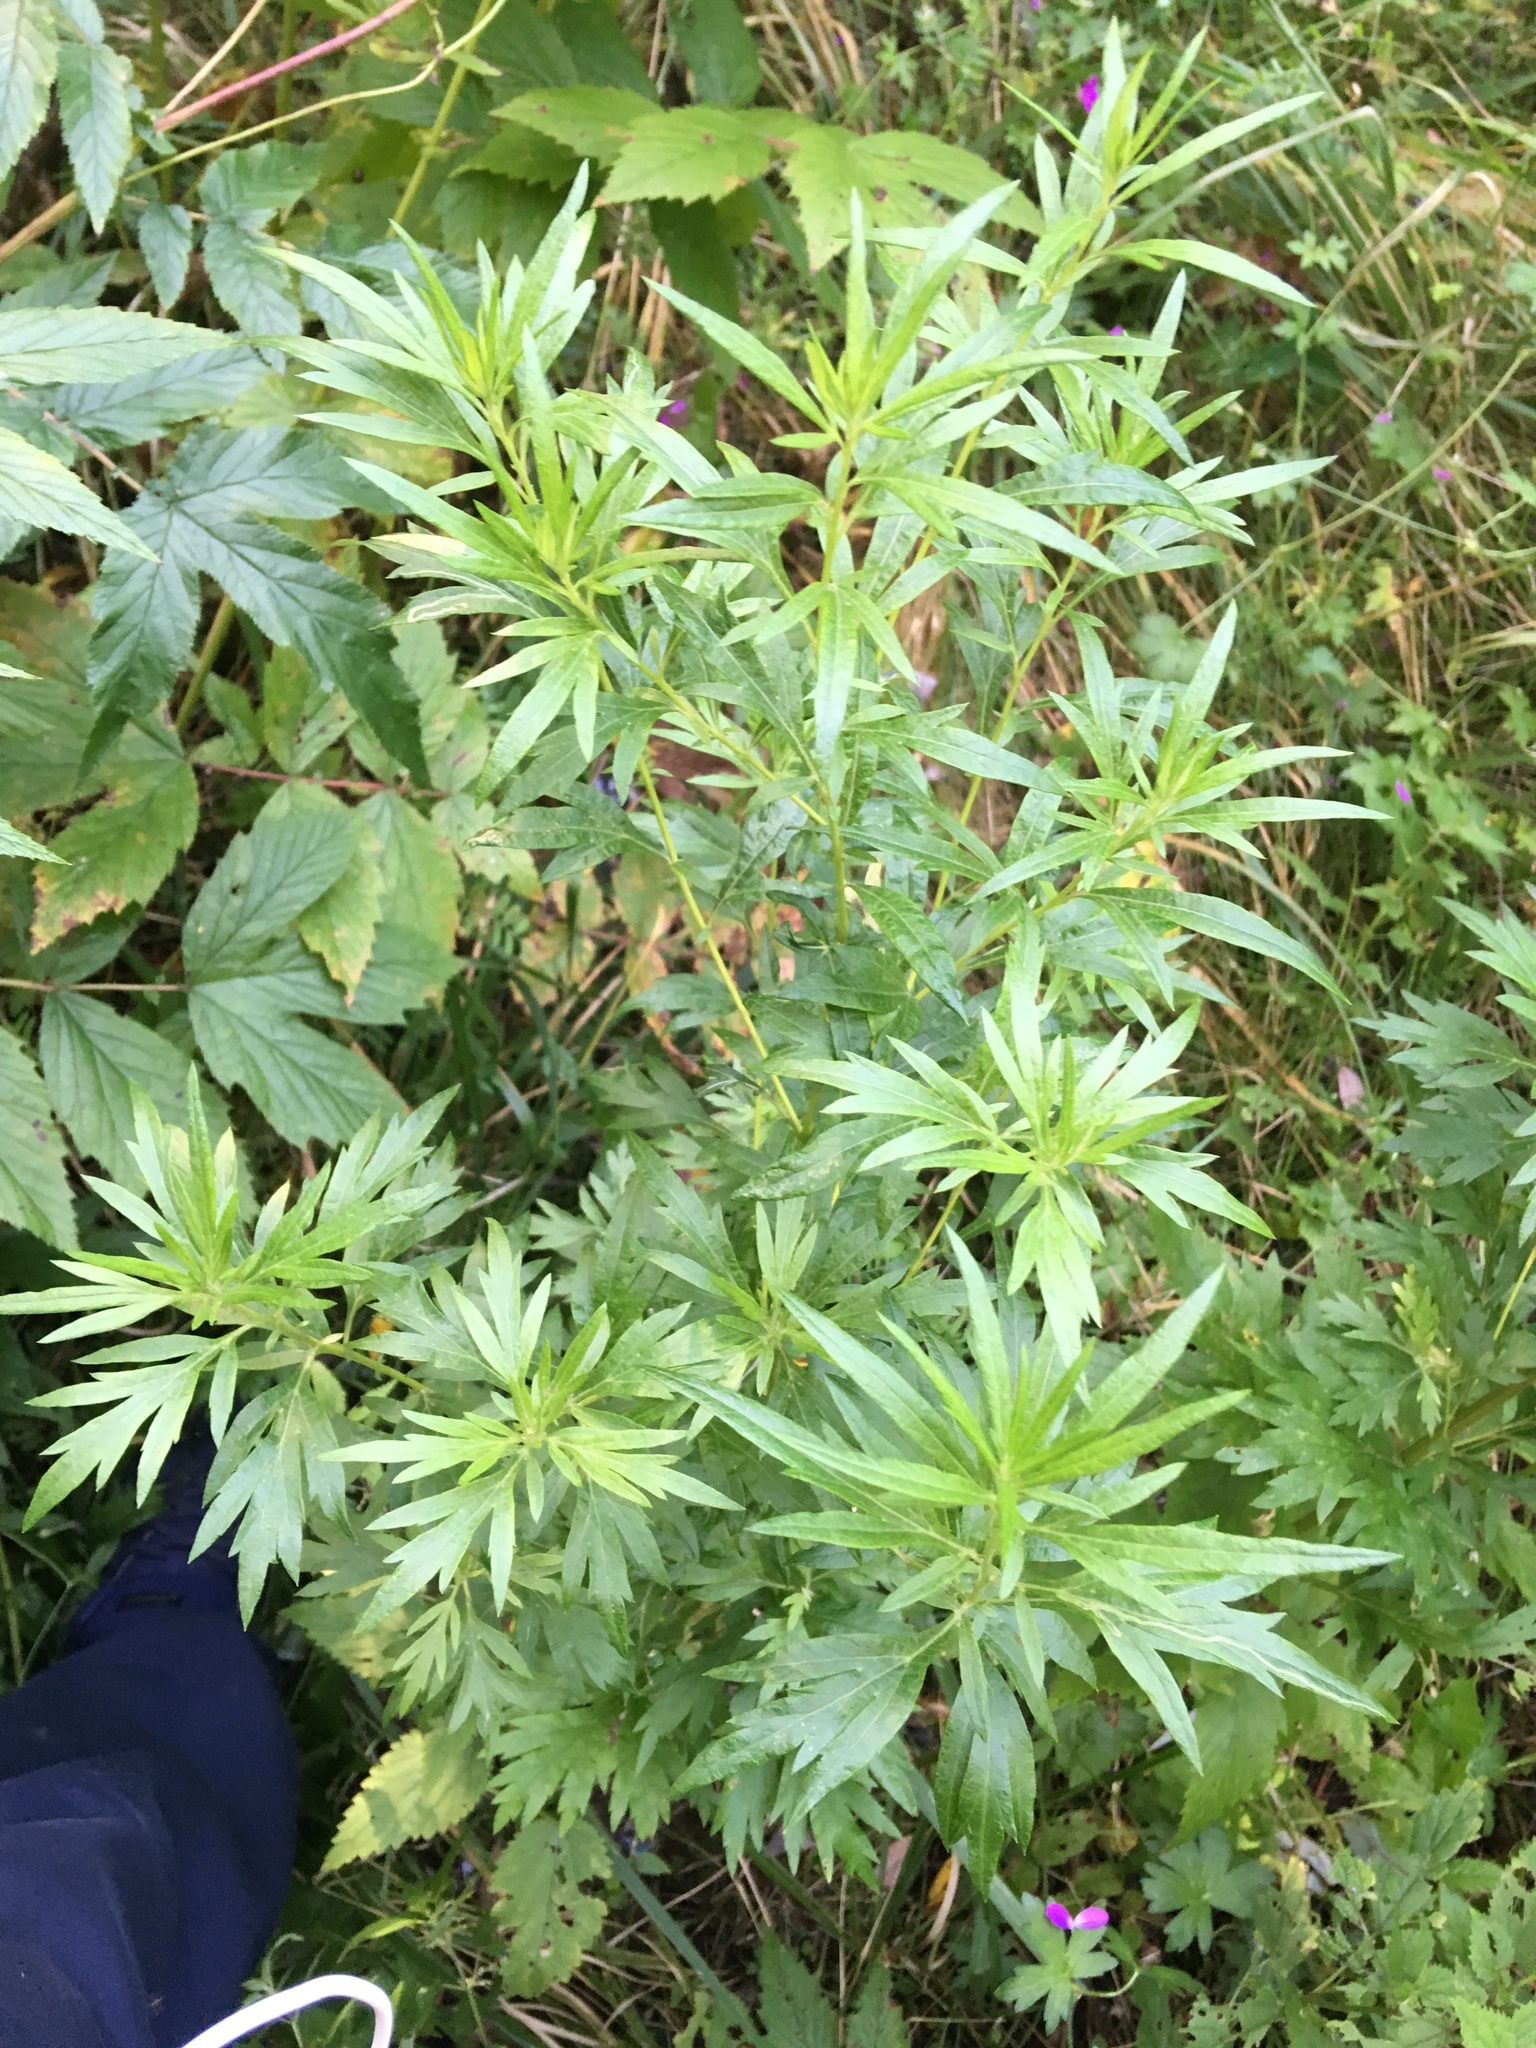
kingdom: Plantae
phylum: Tracheophyta
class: Magnoliopsida
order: Asterales
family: Asteraceae
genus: Artemisia
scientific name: Artemisia vulgaris
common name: Mugwort
